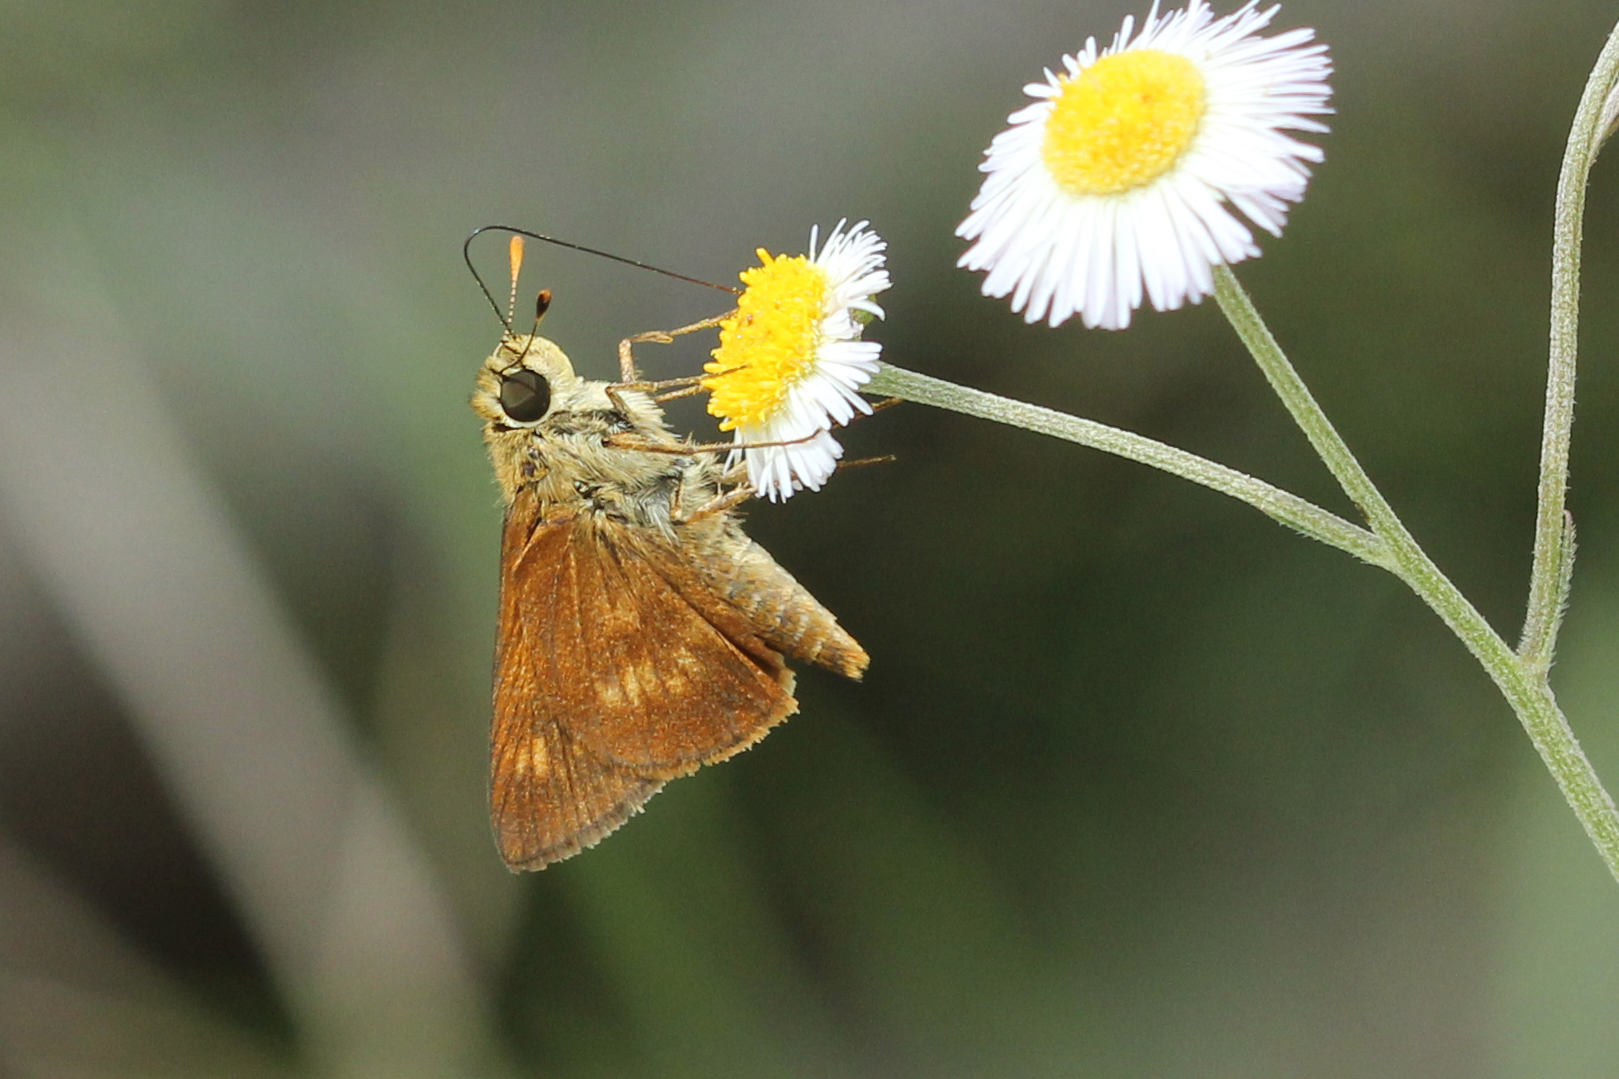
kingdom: Animalia
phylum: Arthropoda
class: Insecta
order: Lepidoptera
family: Hesperiidae
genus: Polites
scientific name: Polites otho
